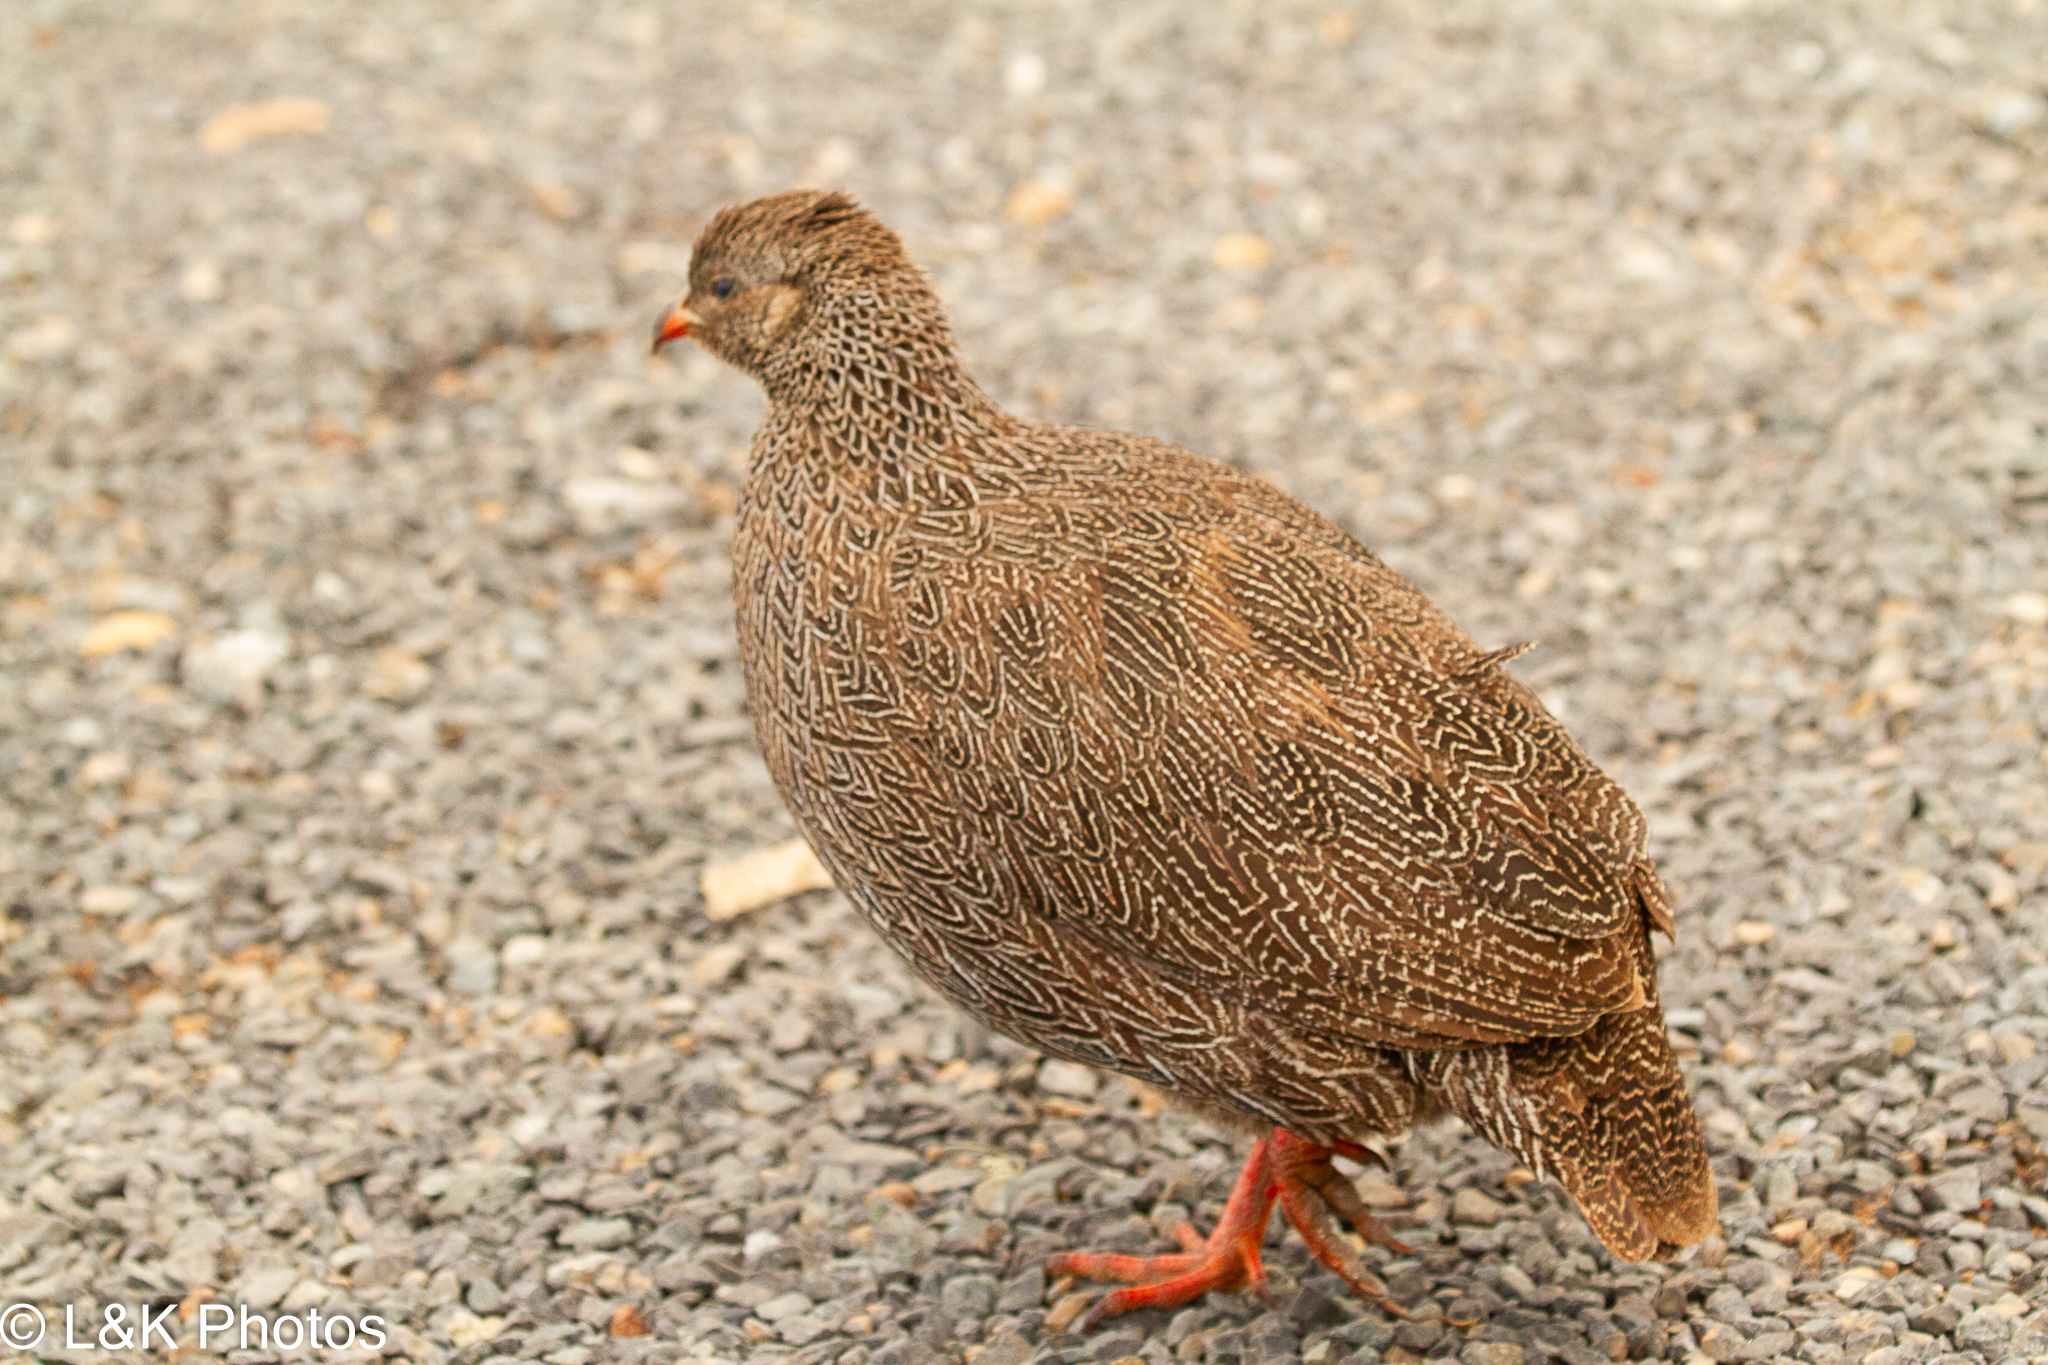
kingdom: Animalia
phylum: Chordata
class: Aves
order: Galliformes
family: Phasianidae
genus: Pternistis
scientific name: Pternistis capensis
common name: Cape spurfowl
